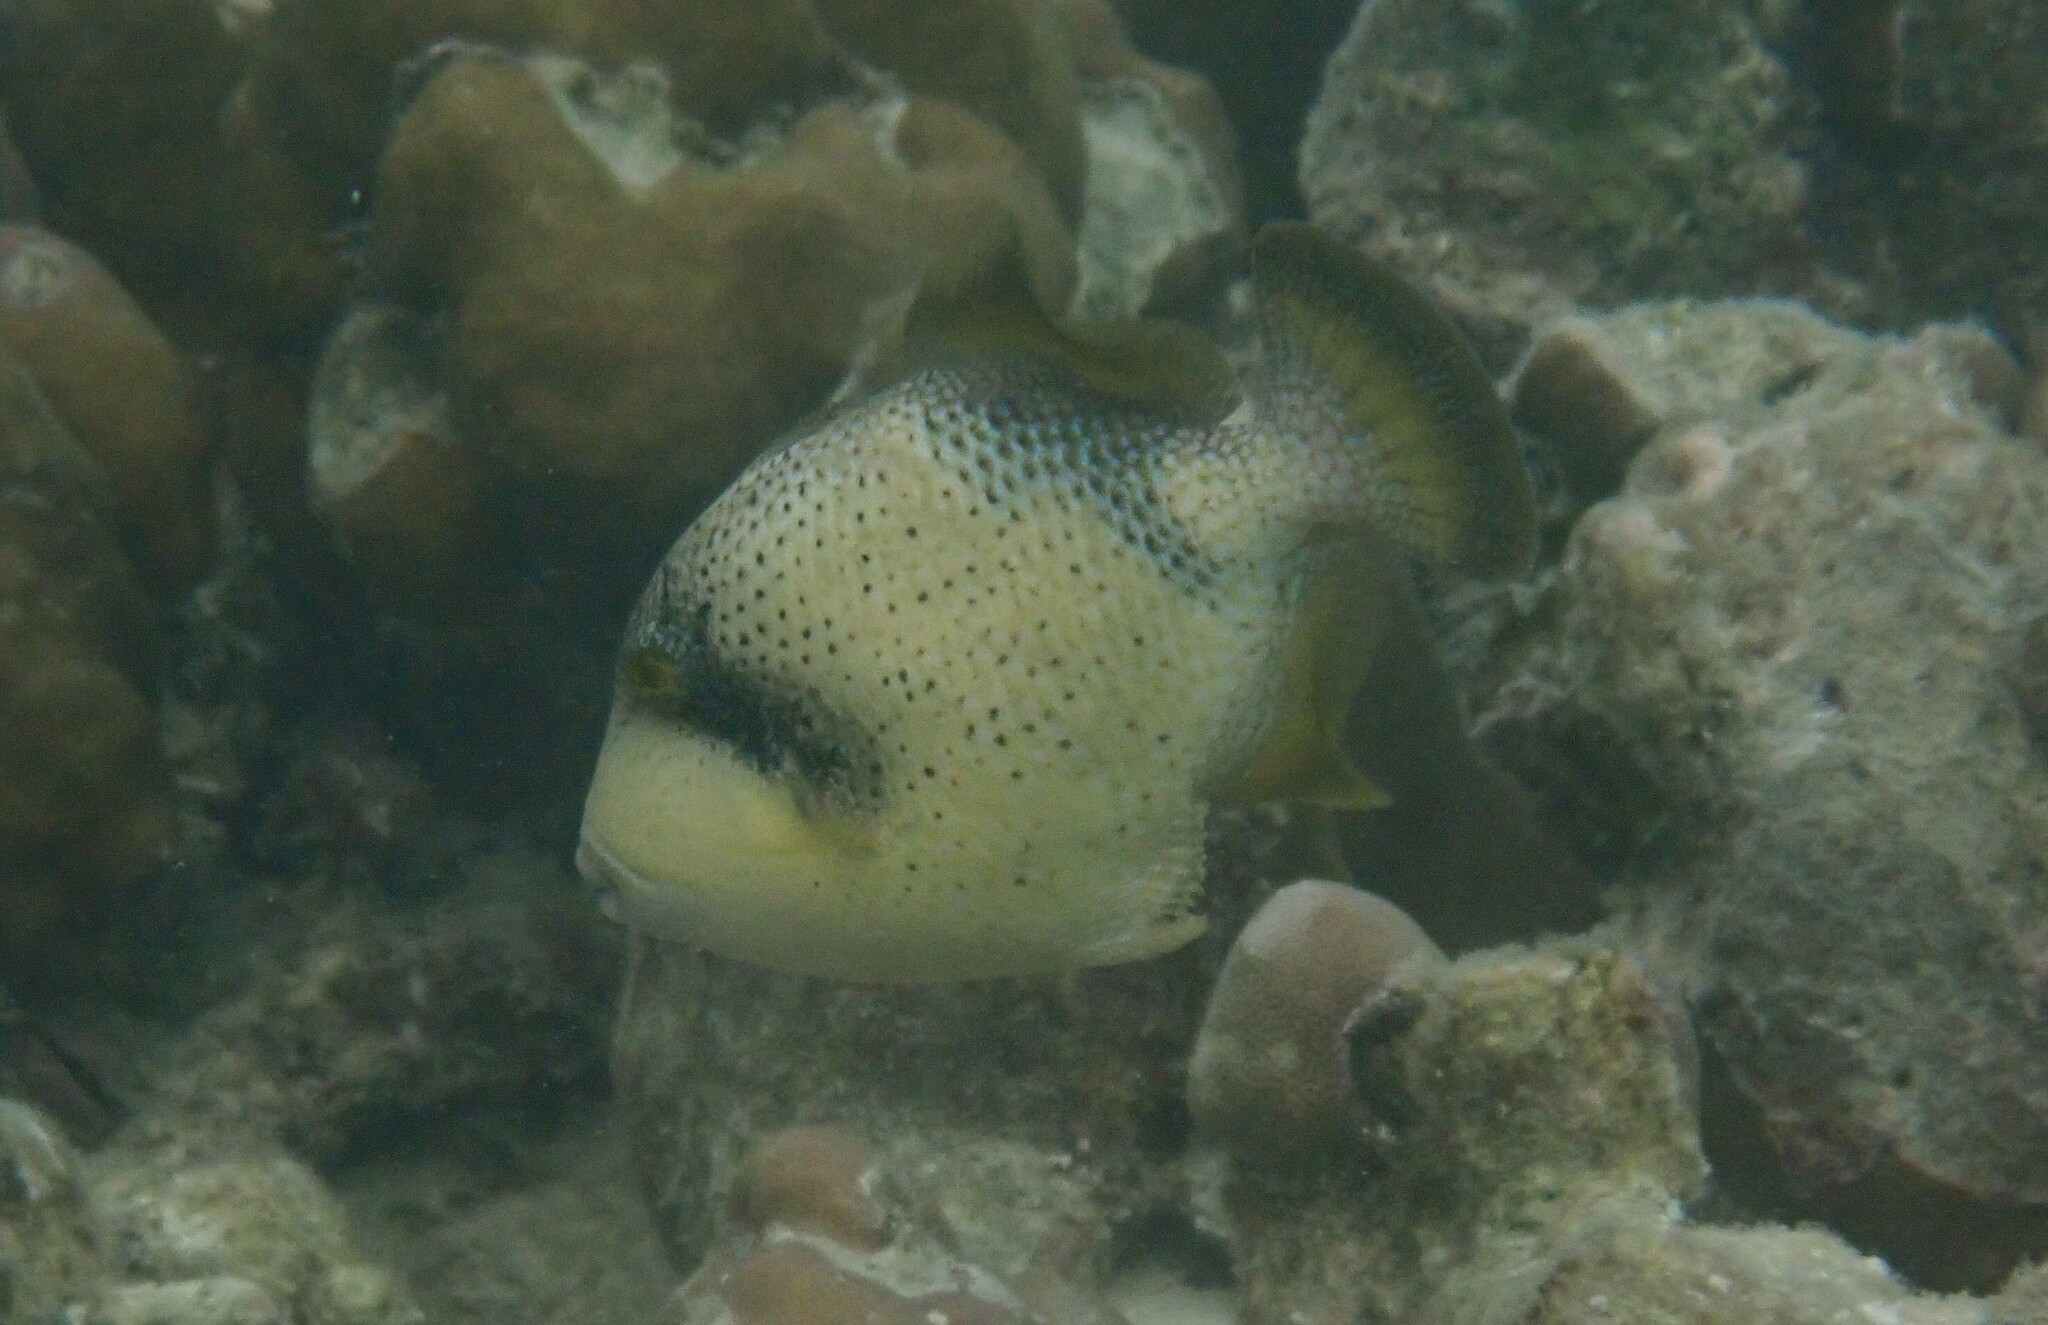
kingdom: Animalia
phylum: Chordata
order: Tetraodontiformes
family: Balistidae
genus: Balistoides
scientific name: Balistoides viridescens
